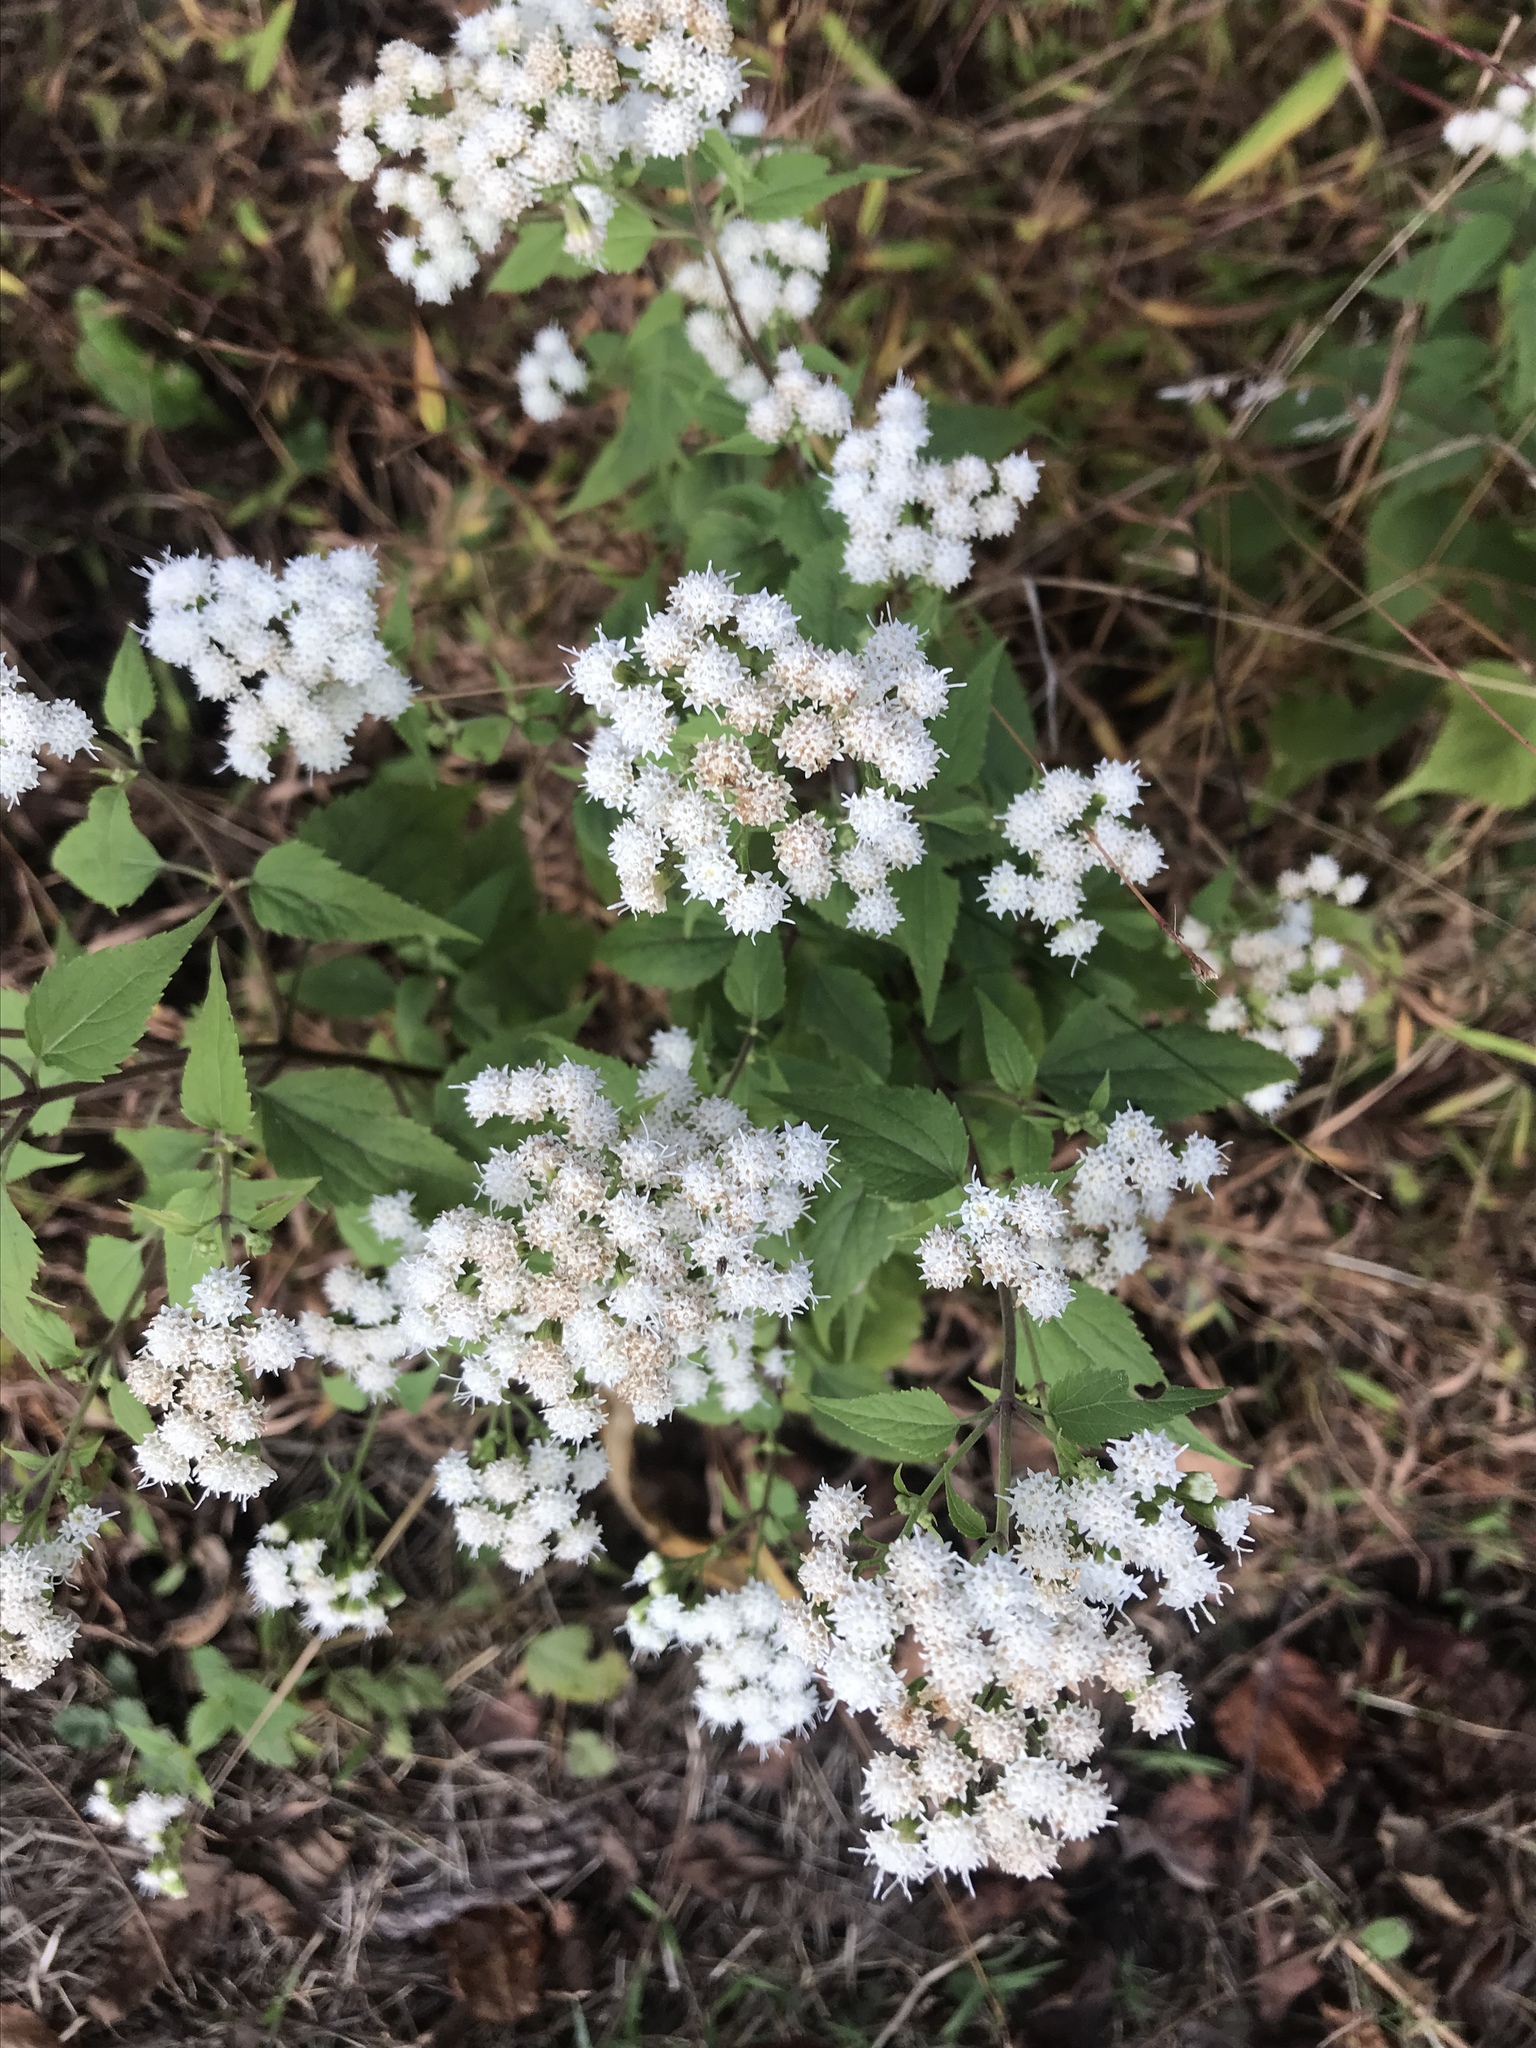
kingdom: Plantae
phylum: Tracheophyta
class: Magnoliopsida
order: Asterales
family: Asteraceae
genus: Ageratina
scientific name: Ageratina altissima
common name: White snakeroot
